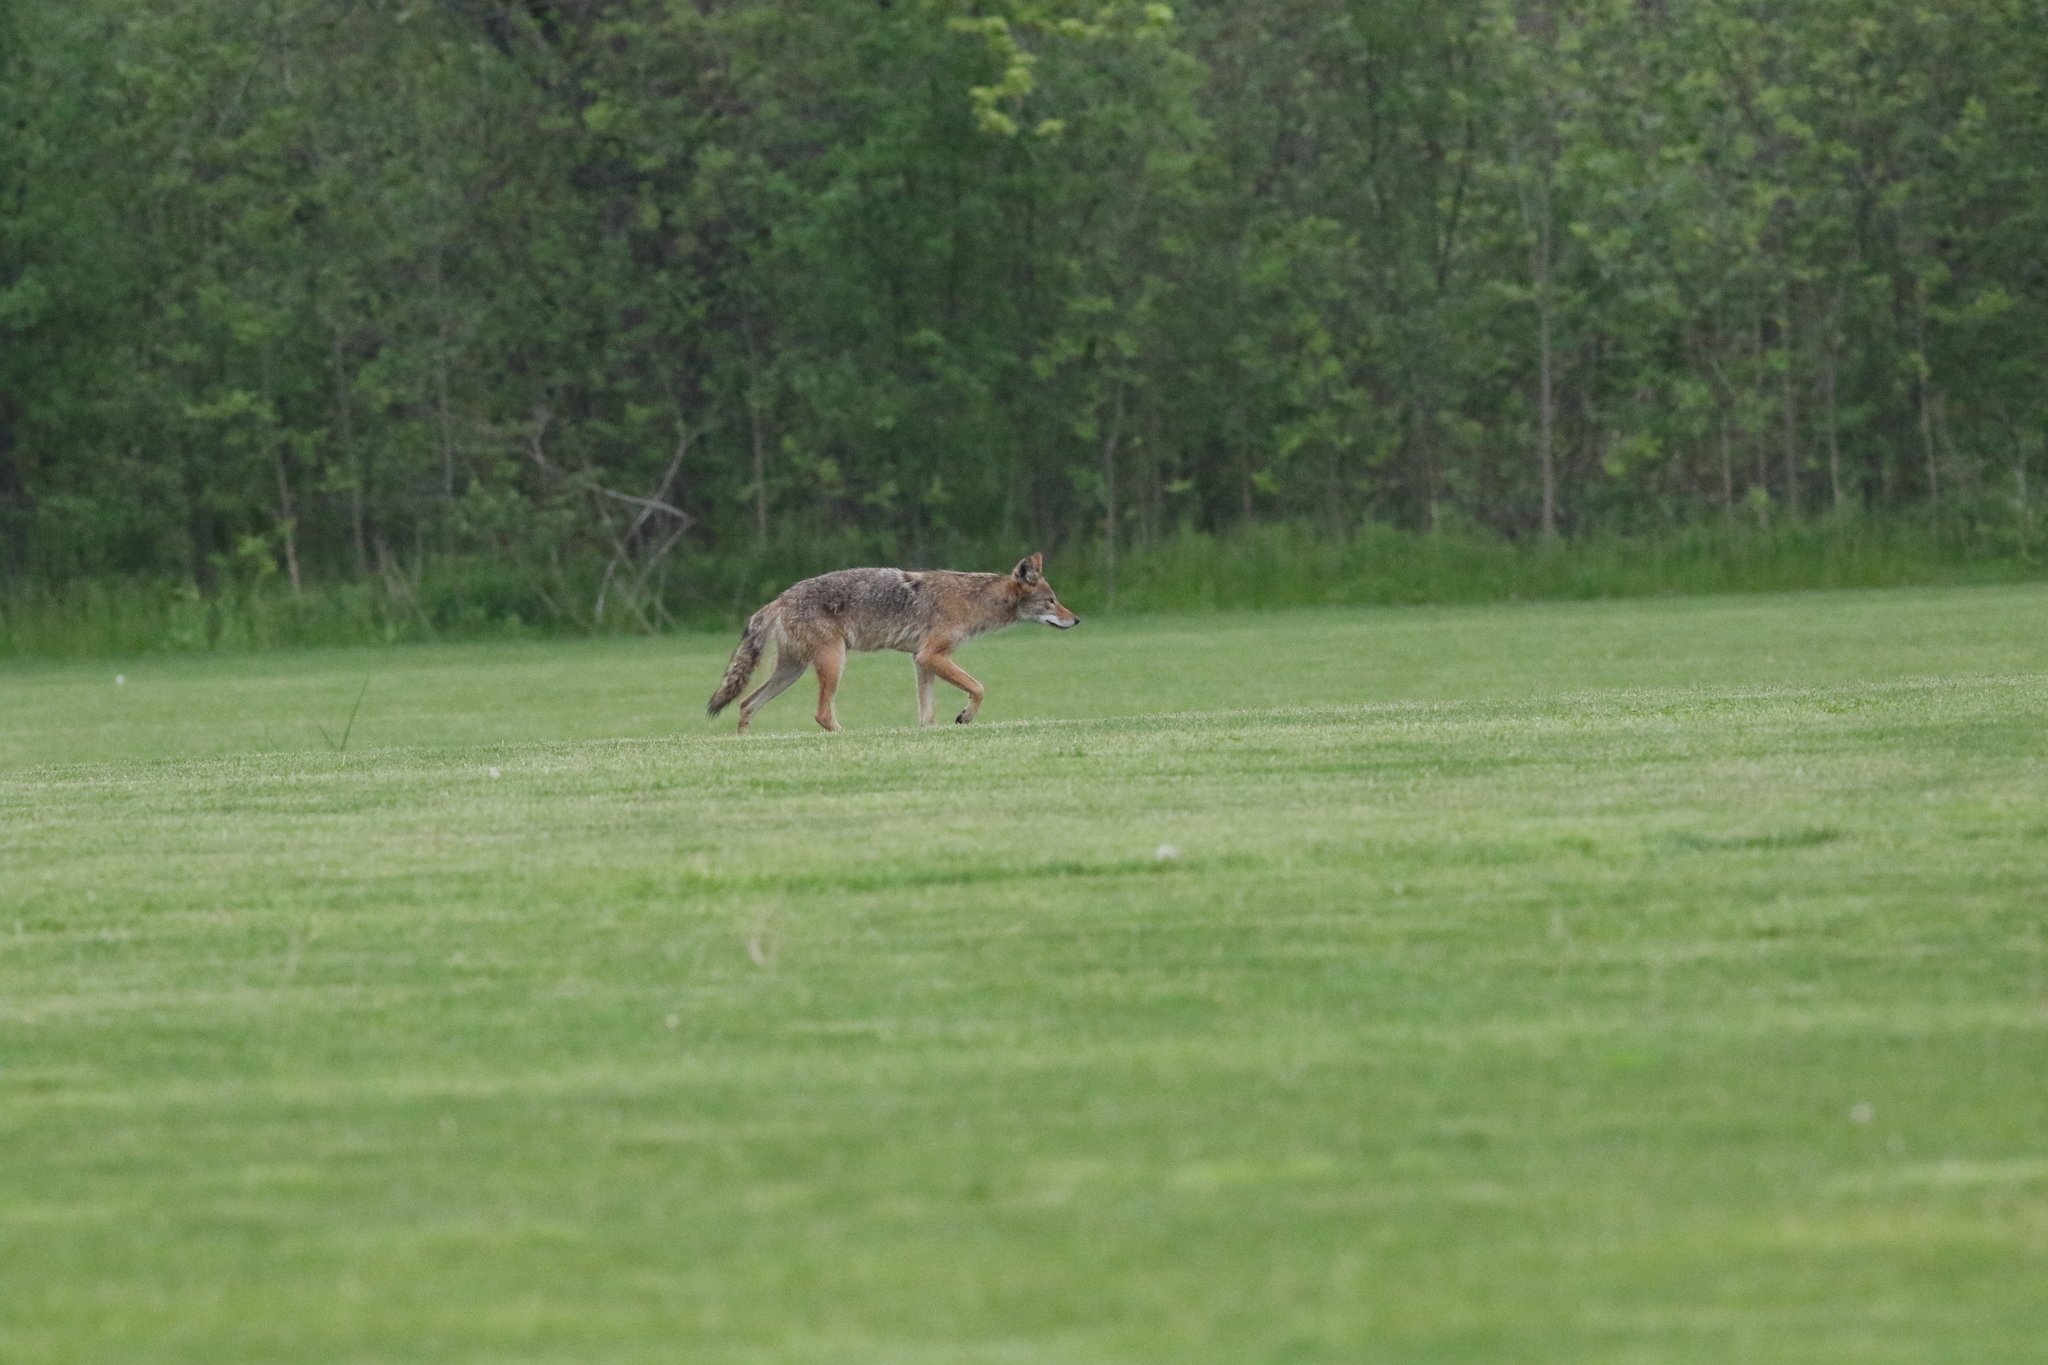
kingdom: Animalia
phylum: Chordata
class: Mammalia
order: Carnivora
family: Canidae
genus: Canis
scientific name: Canis latrans
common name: Coyote
